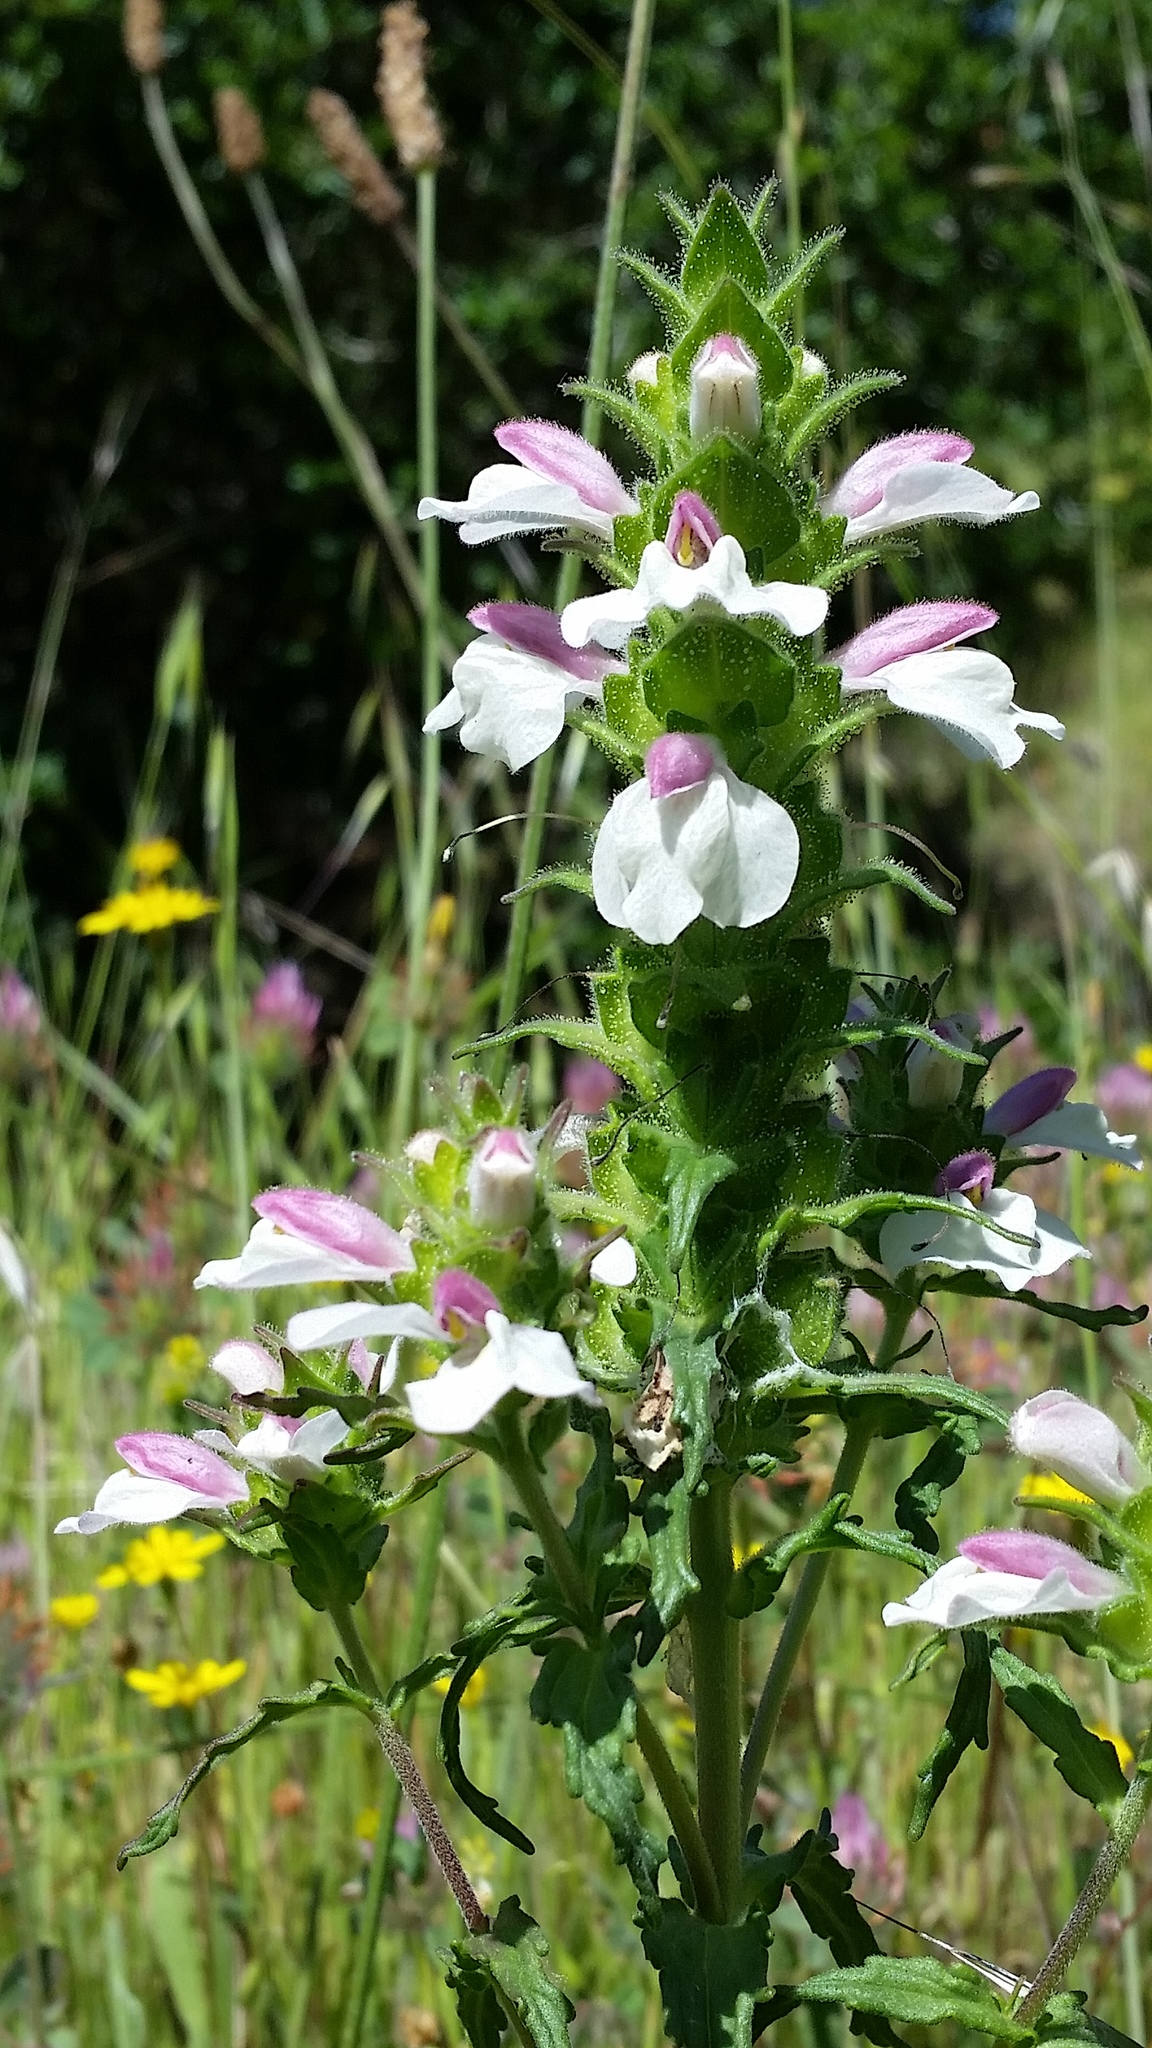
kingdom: Plantae
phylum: Tracheophyta
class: Magnoliopsida
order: Lamiales
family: Orobanchaceae
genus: Bellardia
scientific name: Bellardia trixago
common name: Mediterranean lineseed
